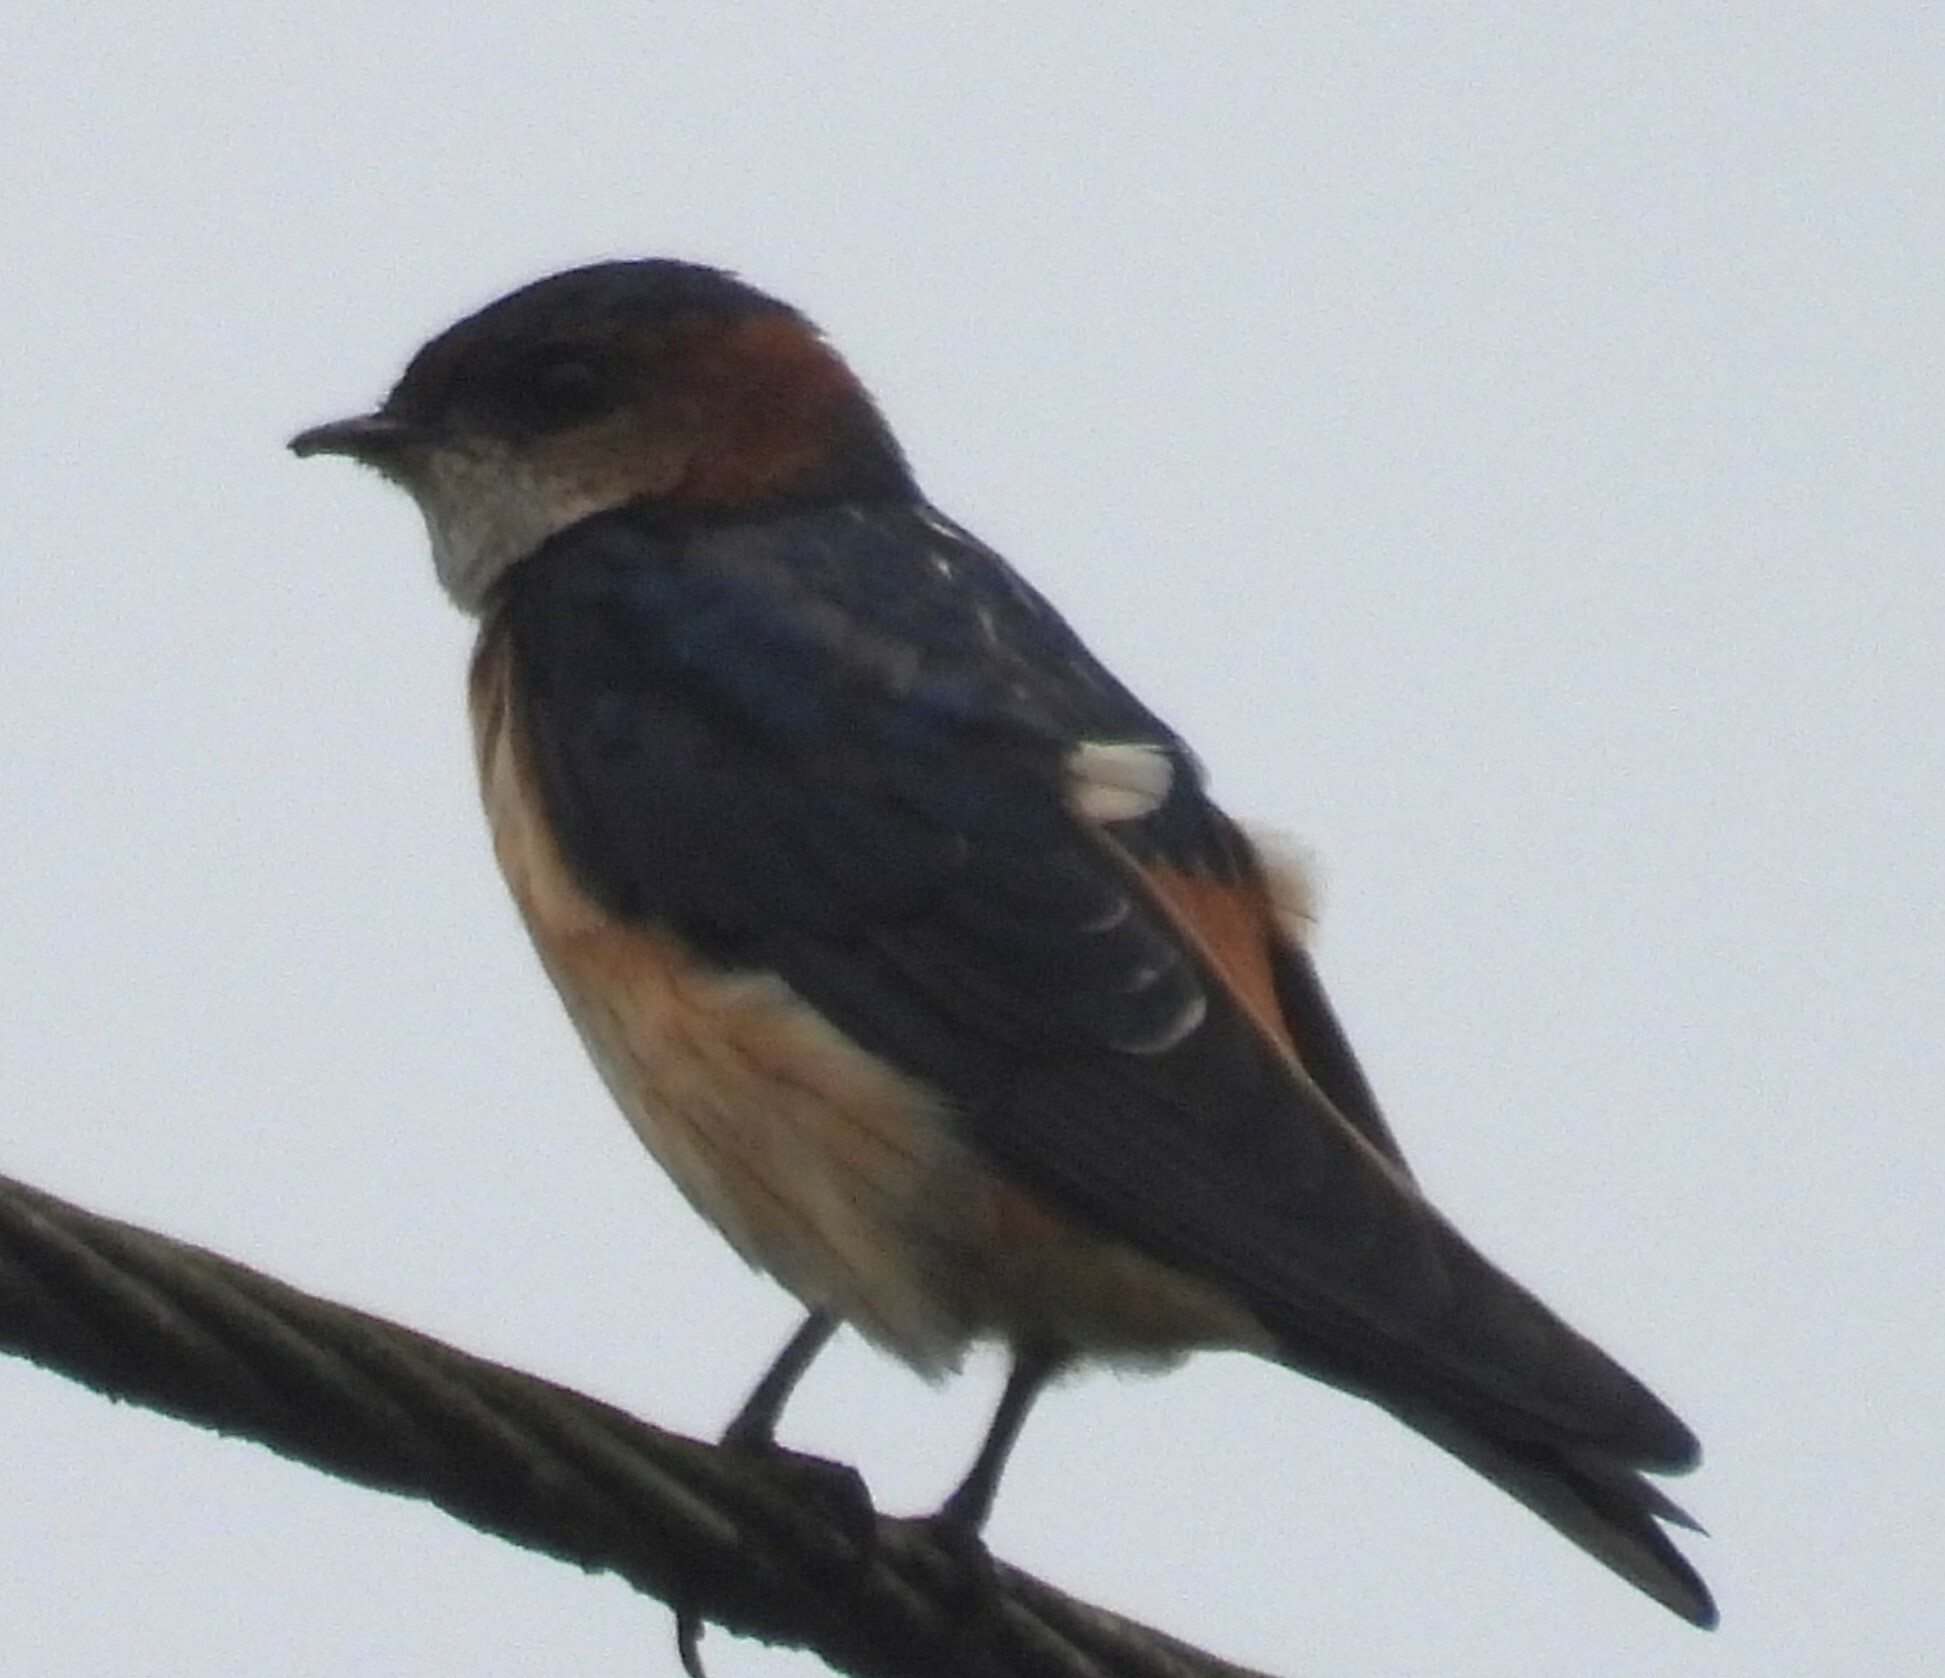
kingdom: Animalia
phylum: Chordata
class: Aves
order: Passeriformes
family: Hirundinidae
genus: Cecropis
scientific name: Cecropis daurica
